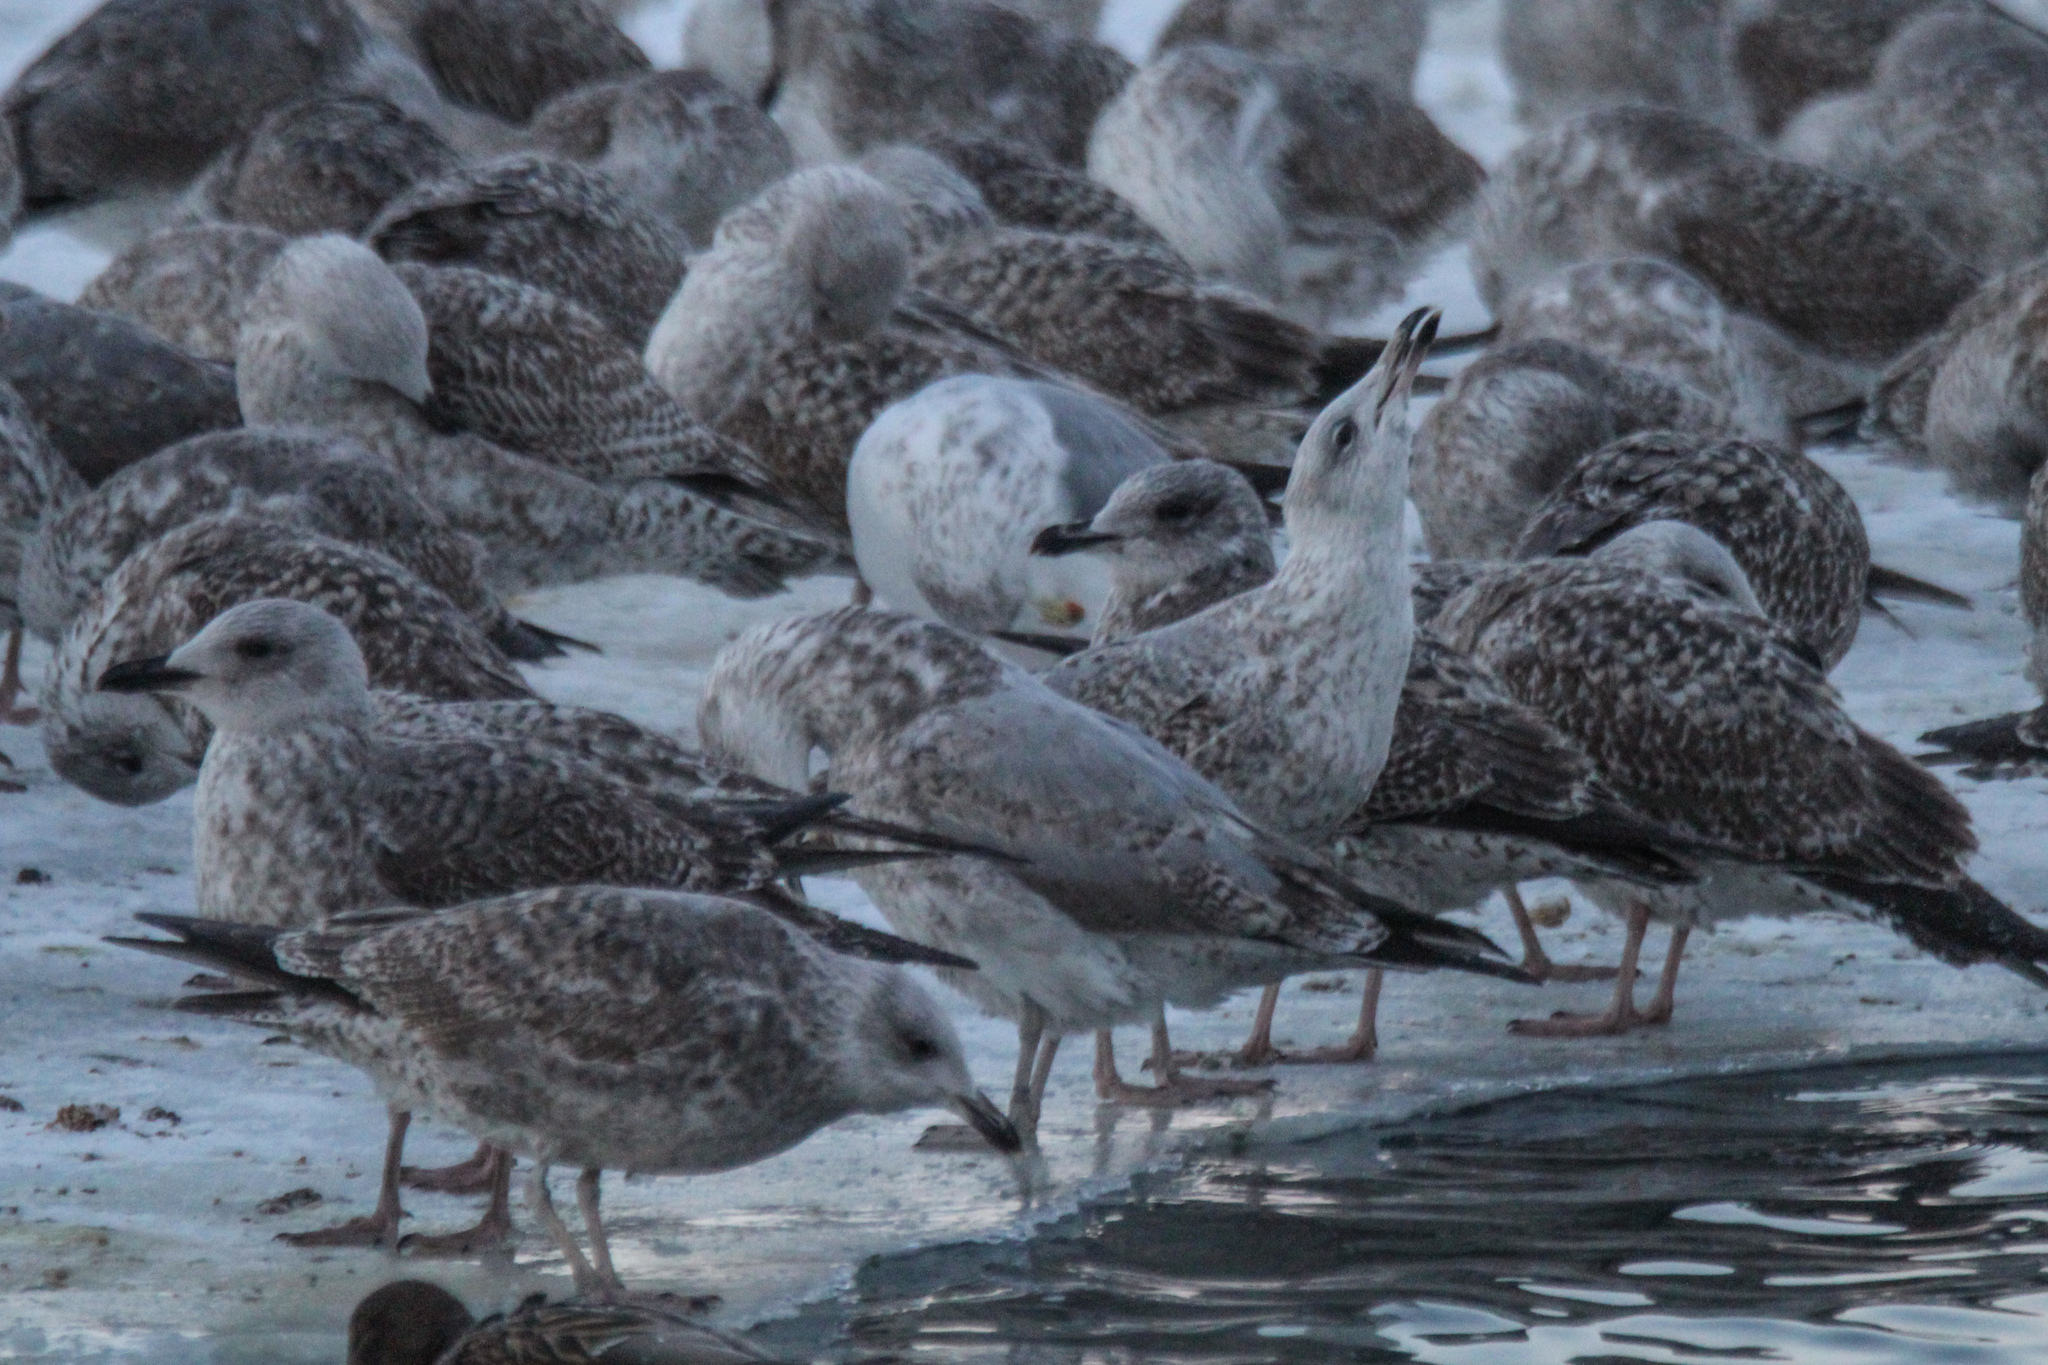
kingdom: Animalia
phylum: Chordata
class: Aves
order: Charadriiformes
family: Laridae
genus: Larus
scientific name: Larus argentatus
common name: Herring gull
